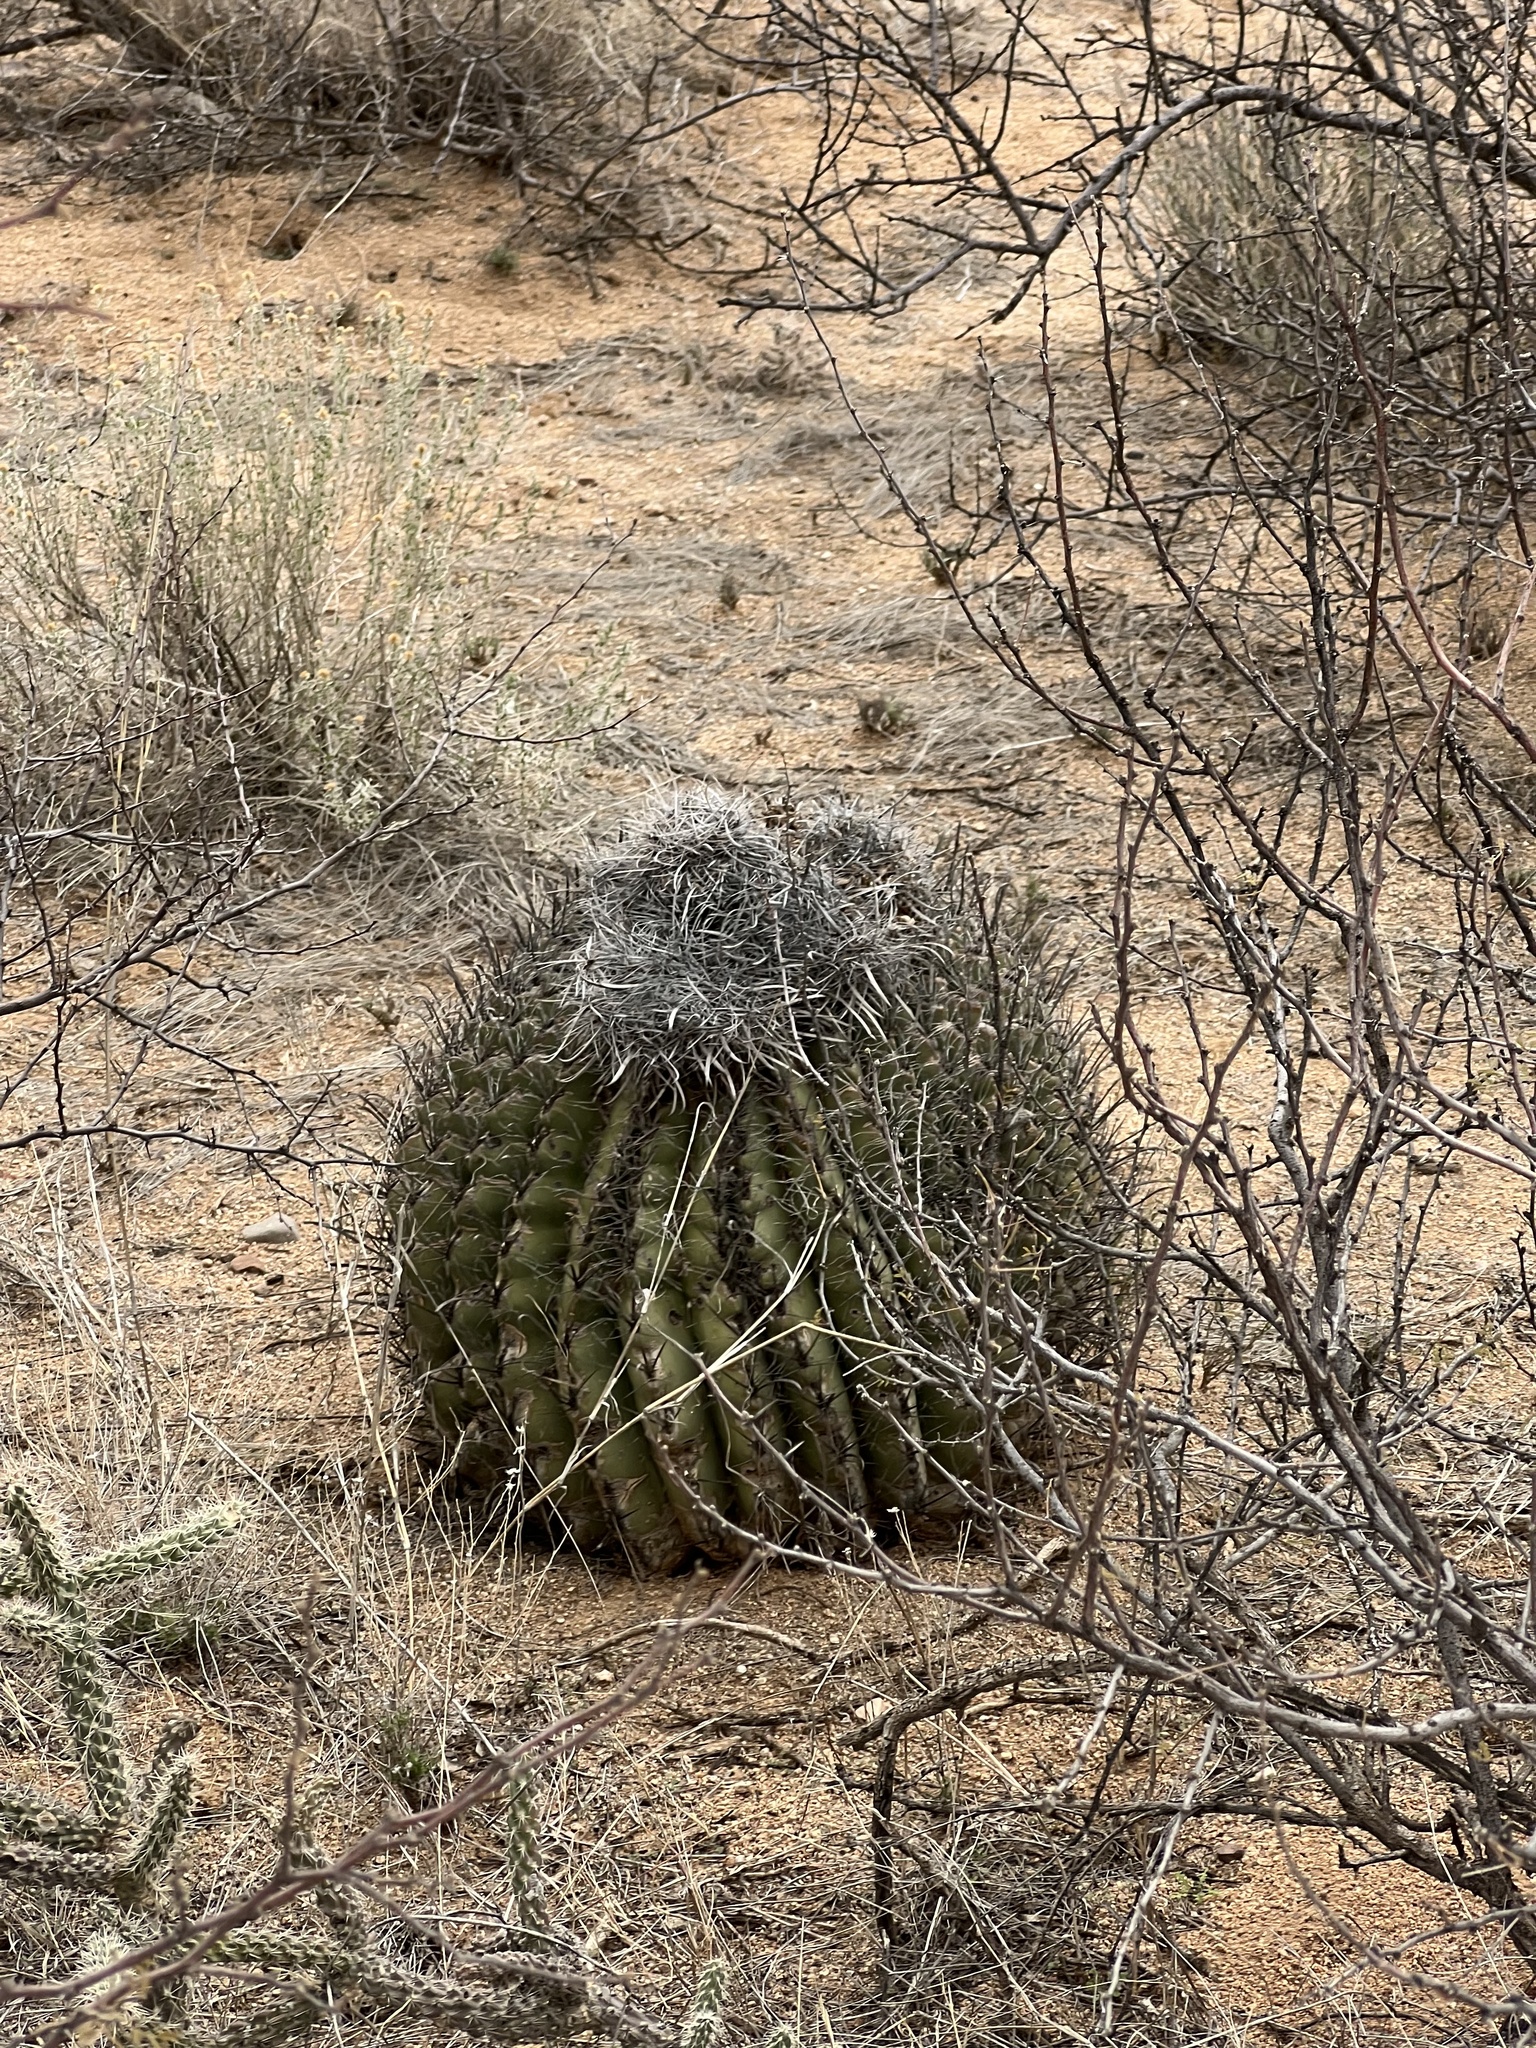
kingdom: Plantae
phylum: Tracheophyta
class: Magnoliopsida
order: Caryophyllales
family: Cactaceae
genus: Ferocactus
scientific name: Ferocactus wislizeni
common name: Candy barrel cactus
